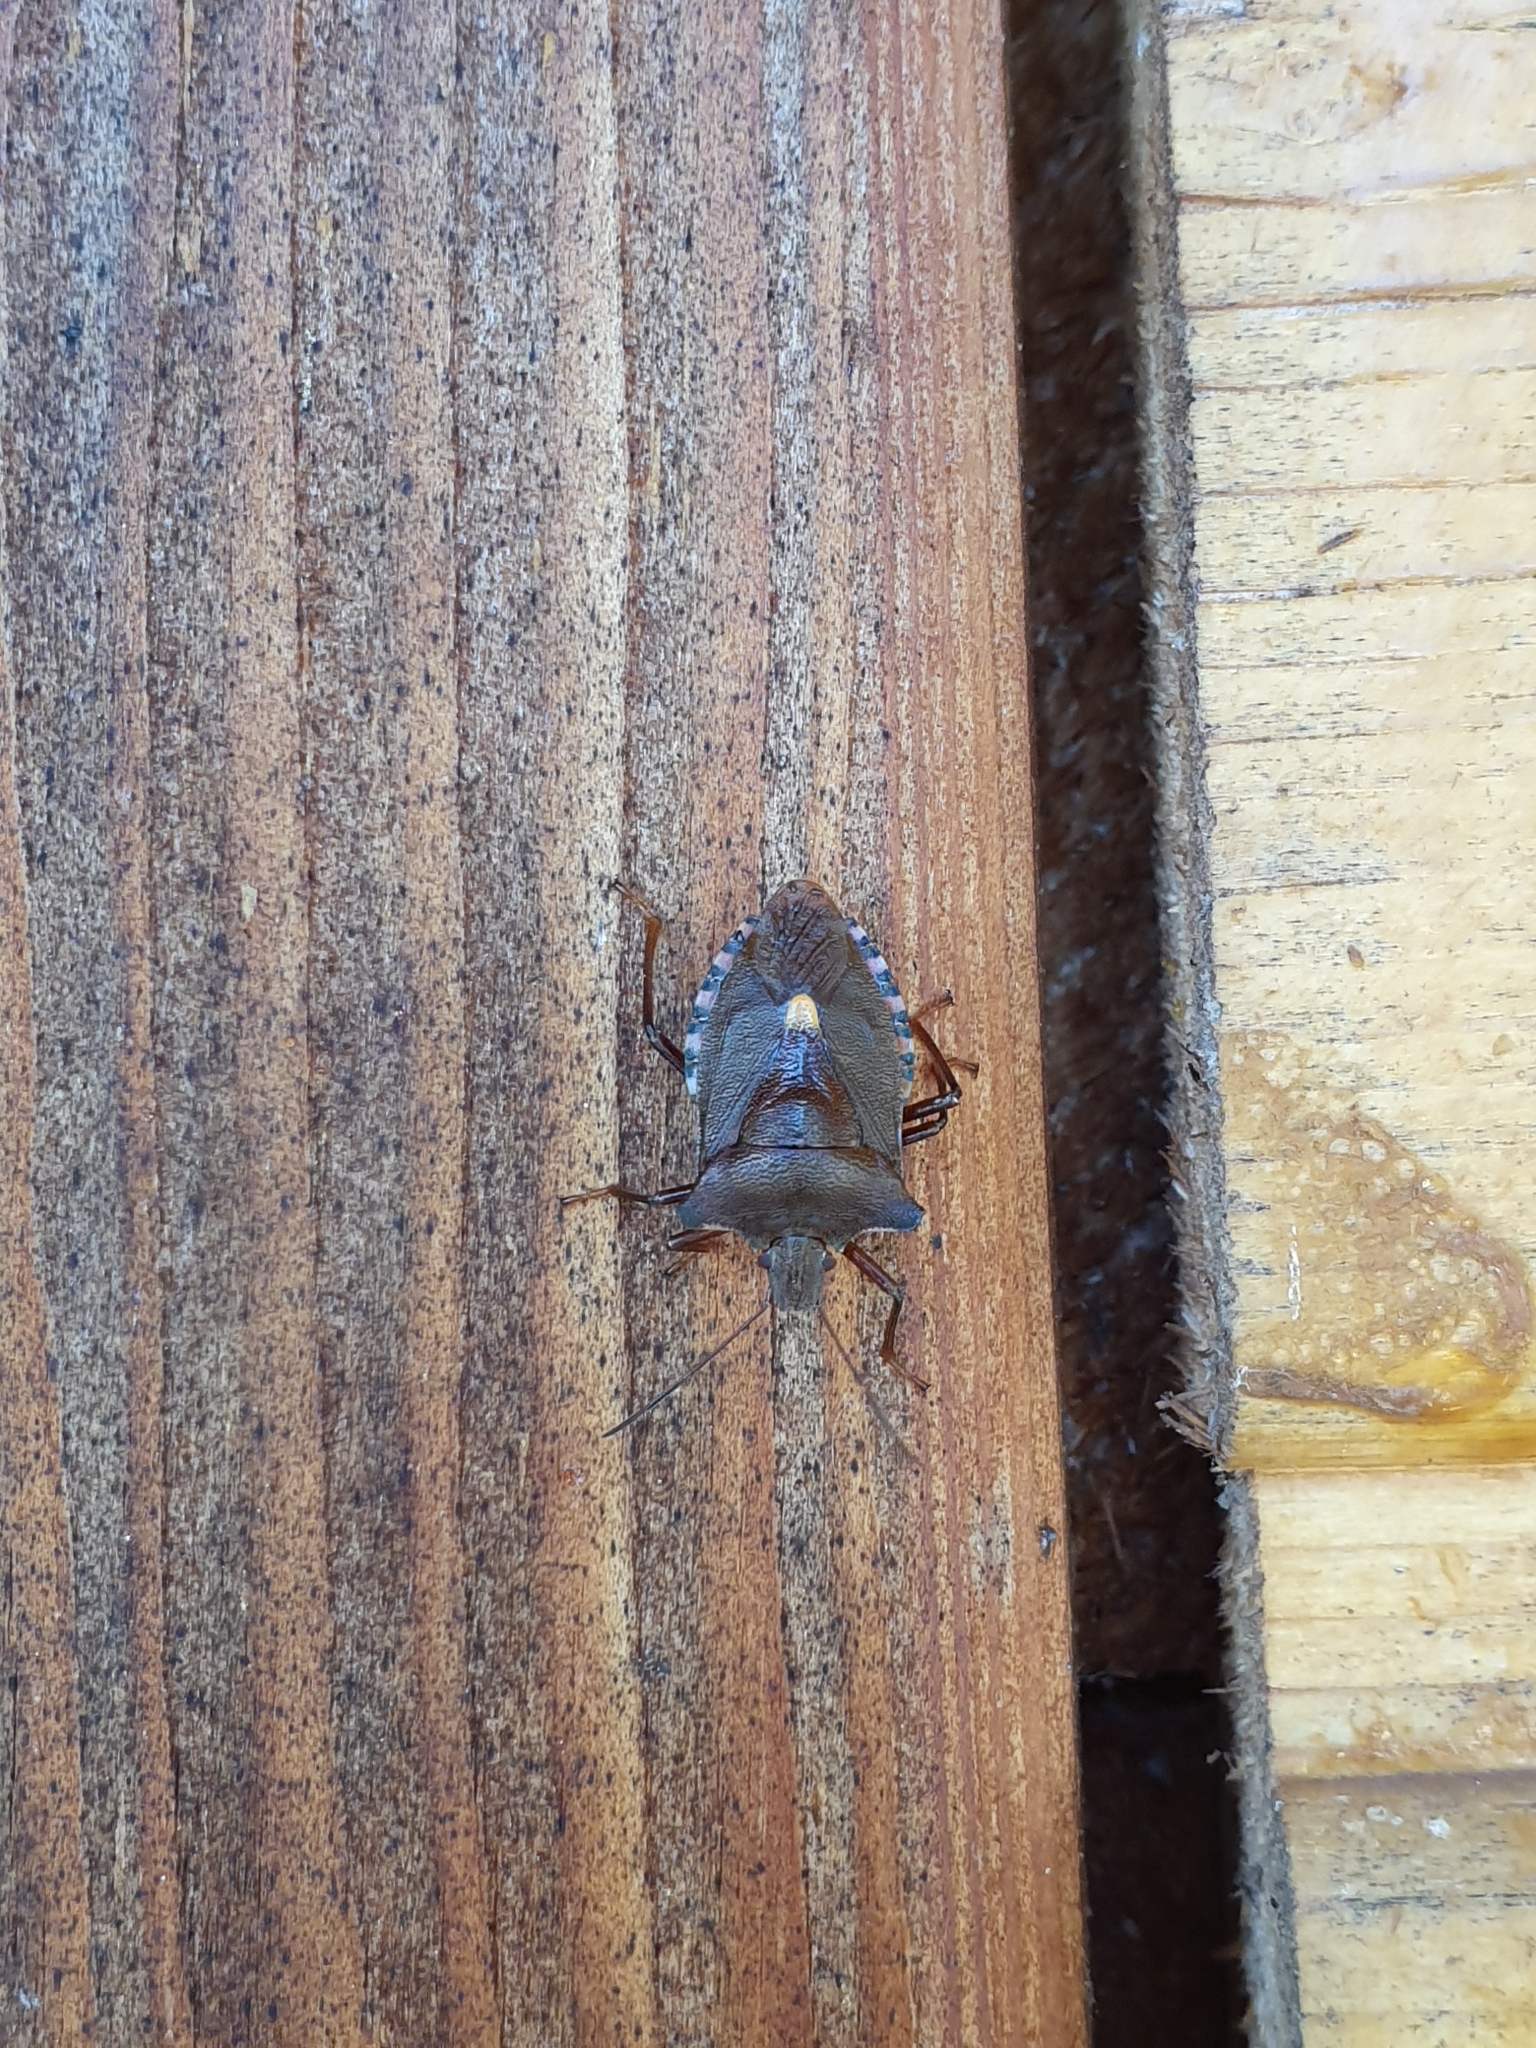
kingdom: Animalia
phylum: Arthropoda
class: Insecta
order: Hemiptera
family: Pentatomidae
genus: Pentatoma
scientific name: Pentatoma rufipes
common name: Forest bug
